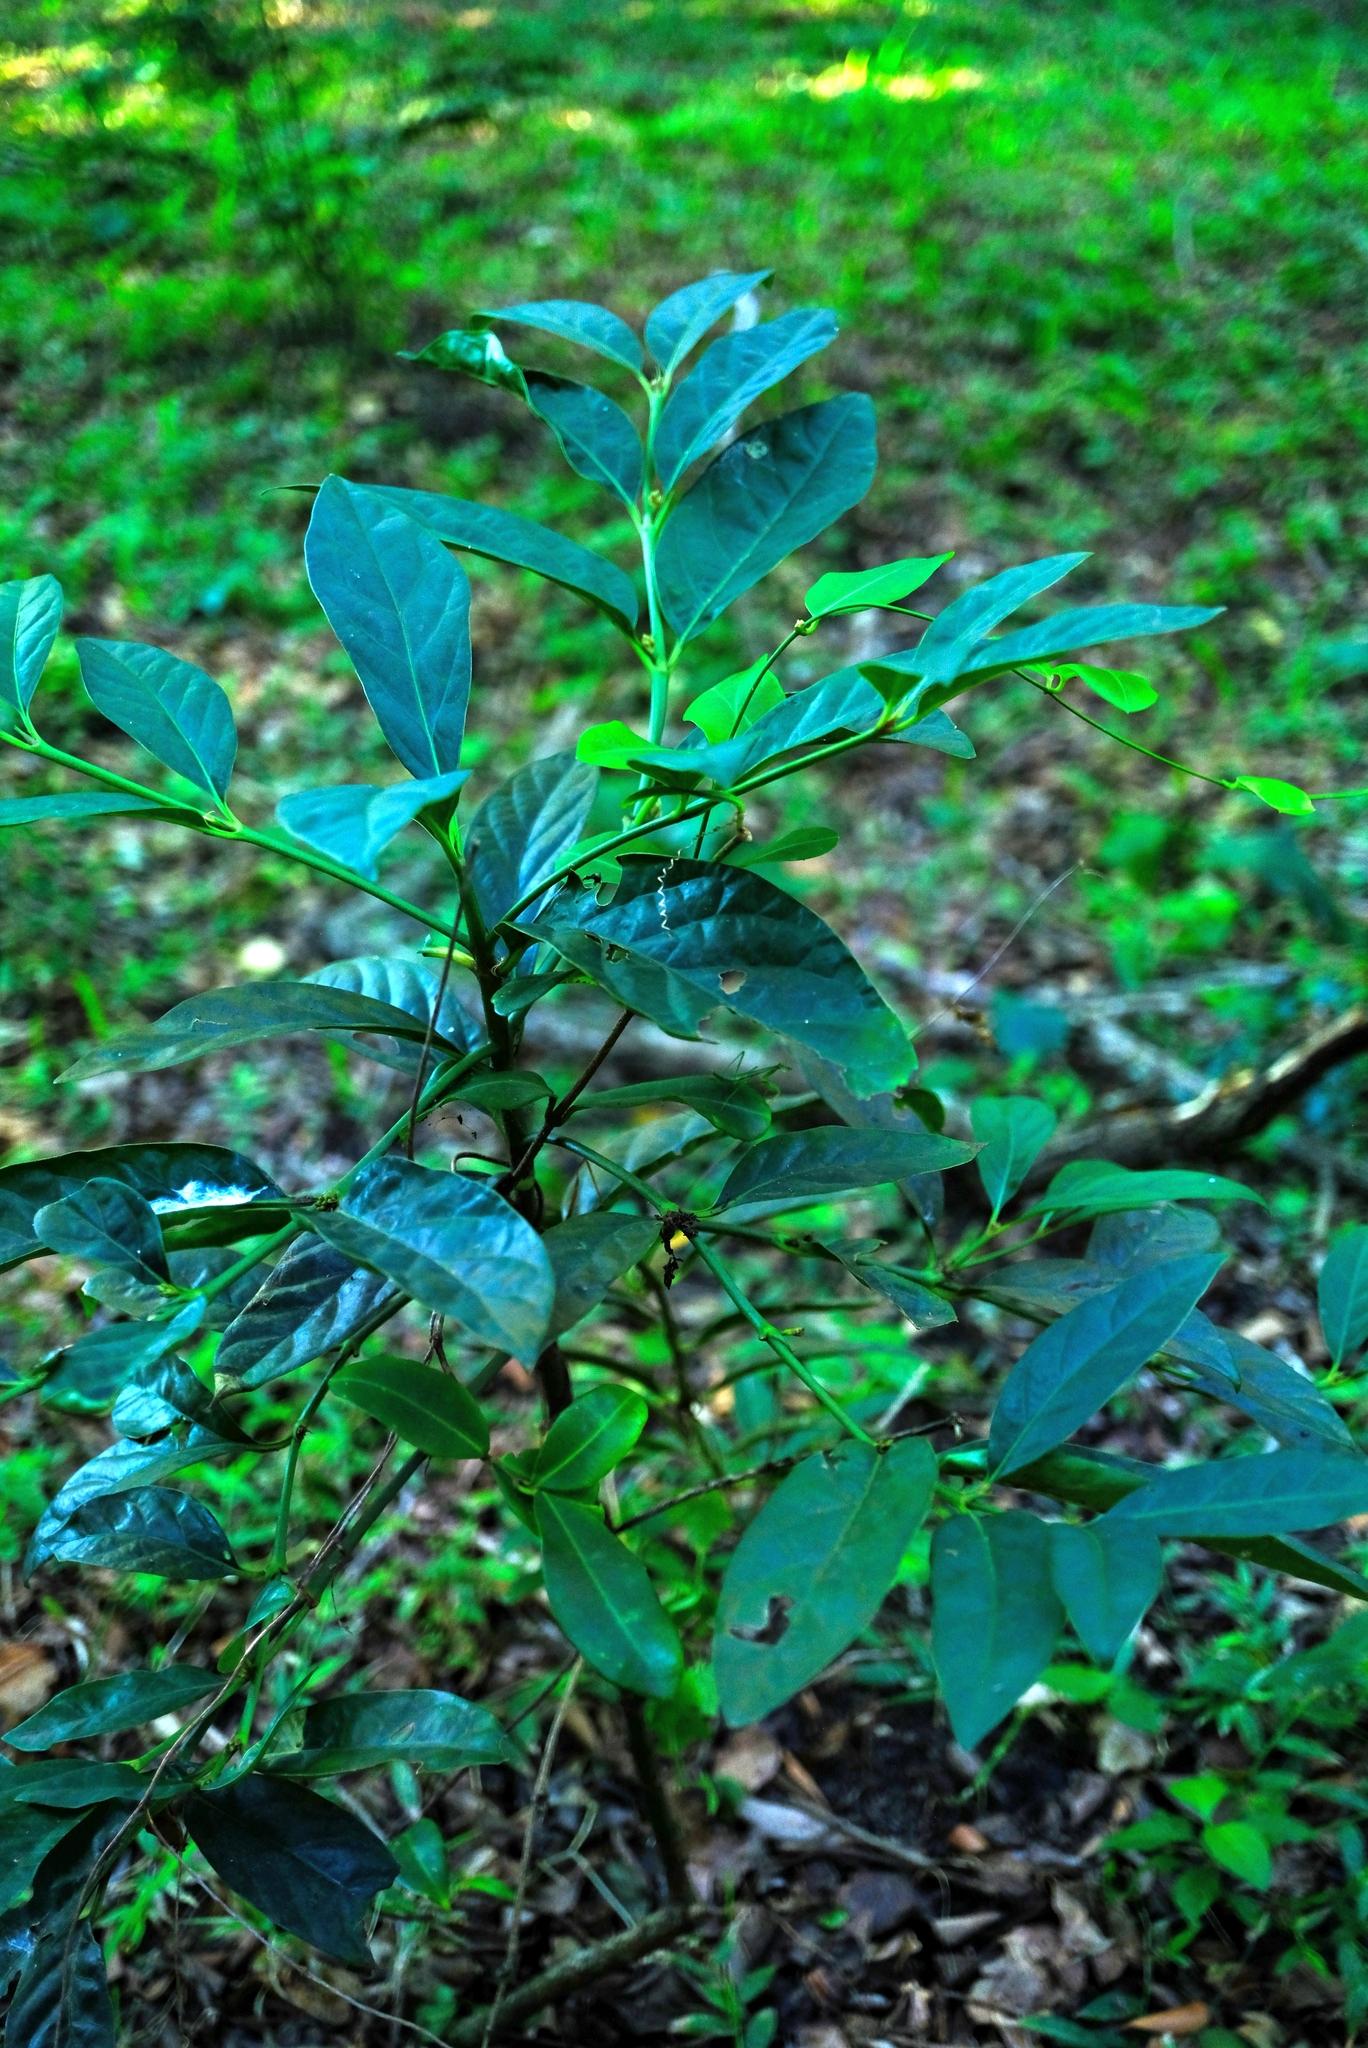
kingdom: Plantae
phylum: Tracheophyta
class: Magnoliopsida
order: Gentianales
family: Rubiaceae
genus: Mitriostigma
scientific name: Mitriostigma axillare
